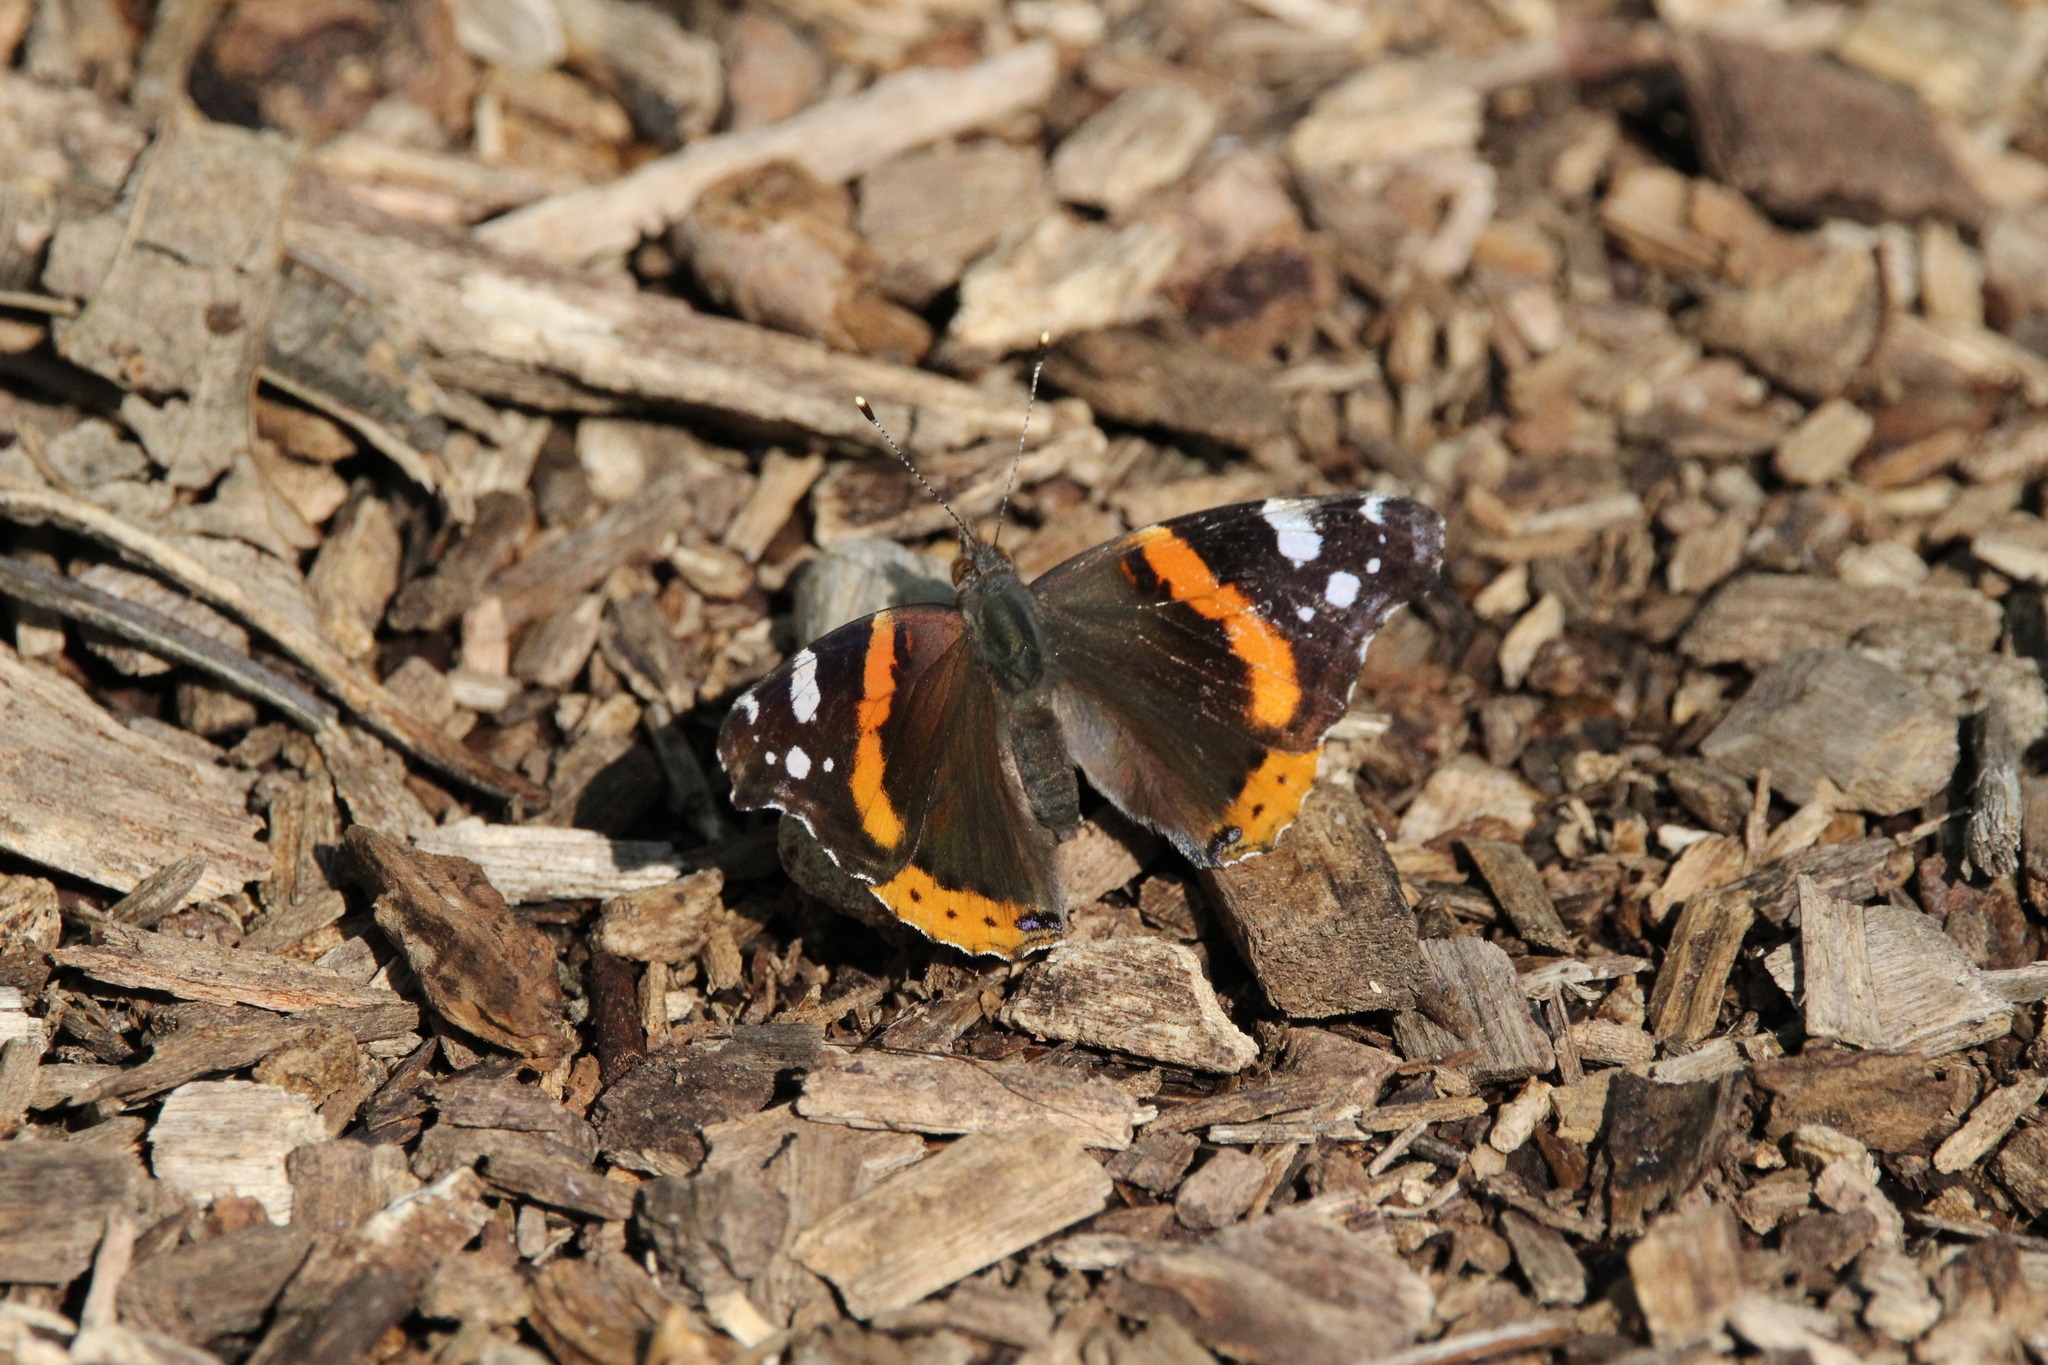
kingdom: Animalia
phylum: Arthropoda
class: Insecta
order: Lepidoptera
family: Nymphalidae
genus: Vanessa
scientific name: Vanessa atalanta
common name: Red admiral
